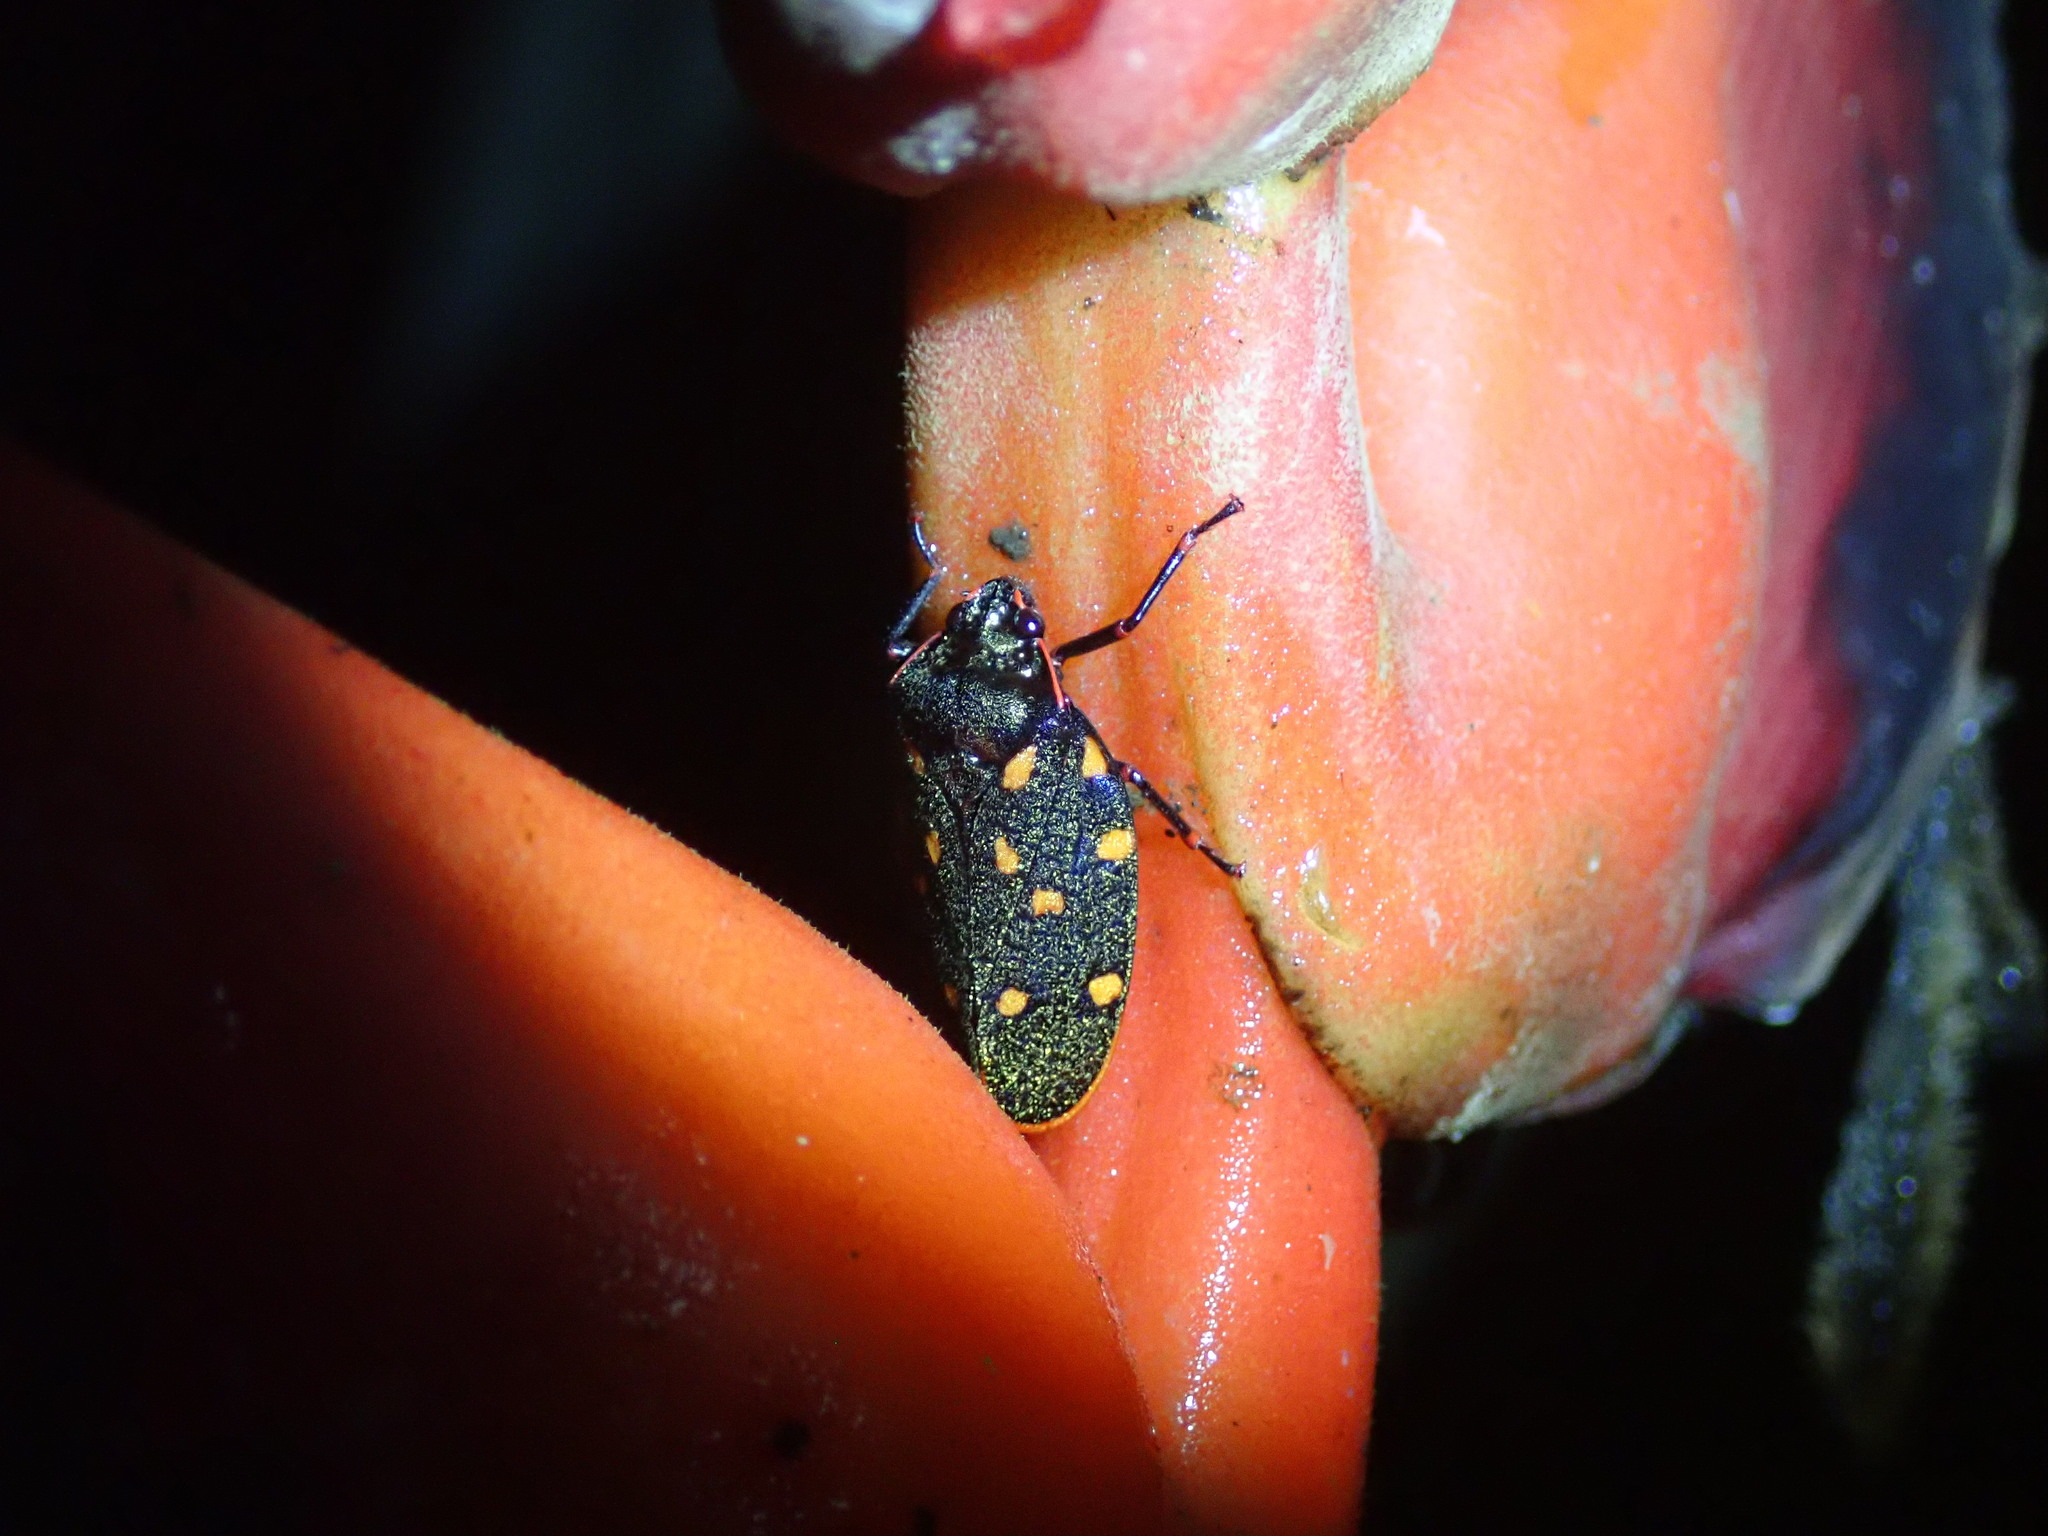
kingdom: Animalia
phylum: Arthropoda
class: Insecta
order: Hemiptera
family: Cercopidae
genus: Mahanarva
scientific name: Mahanarva costaricensis
